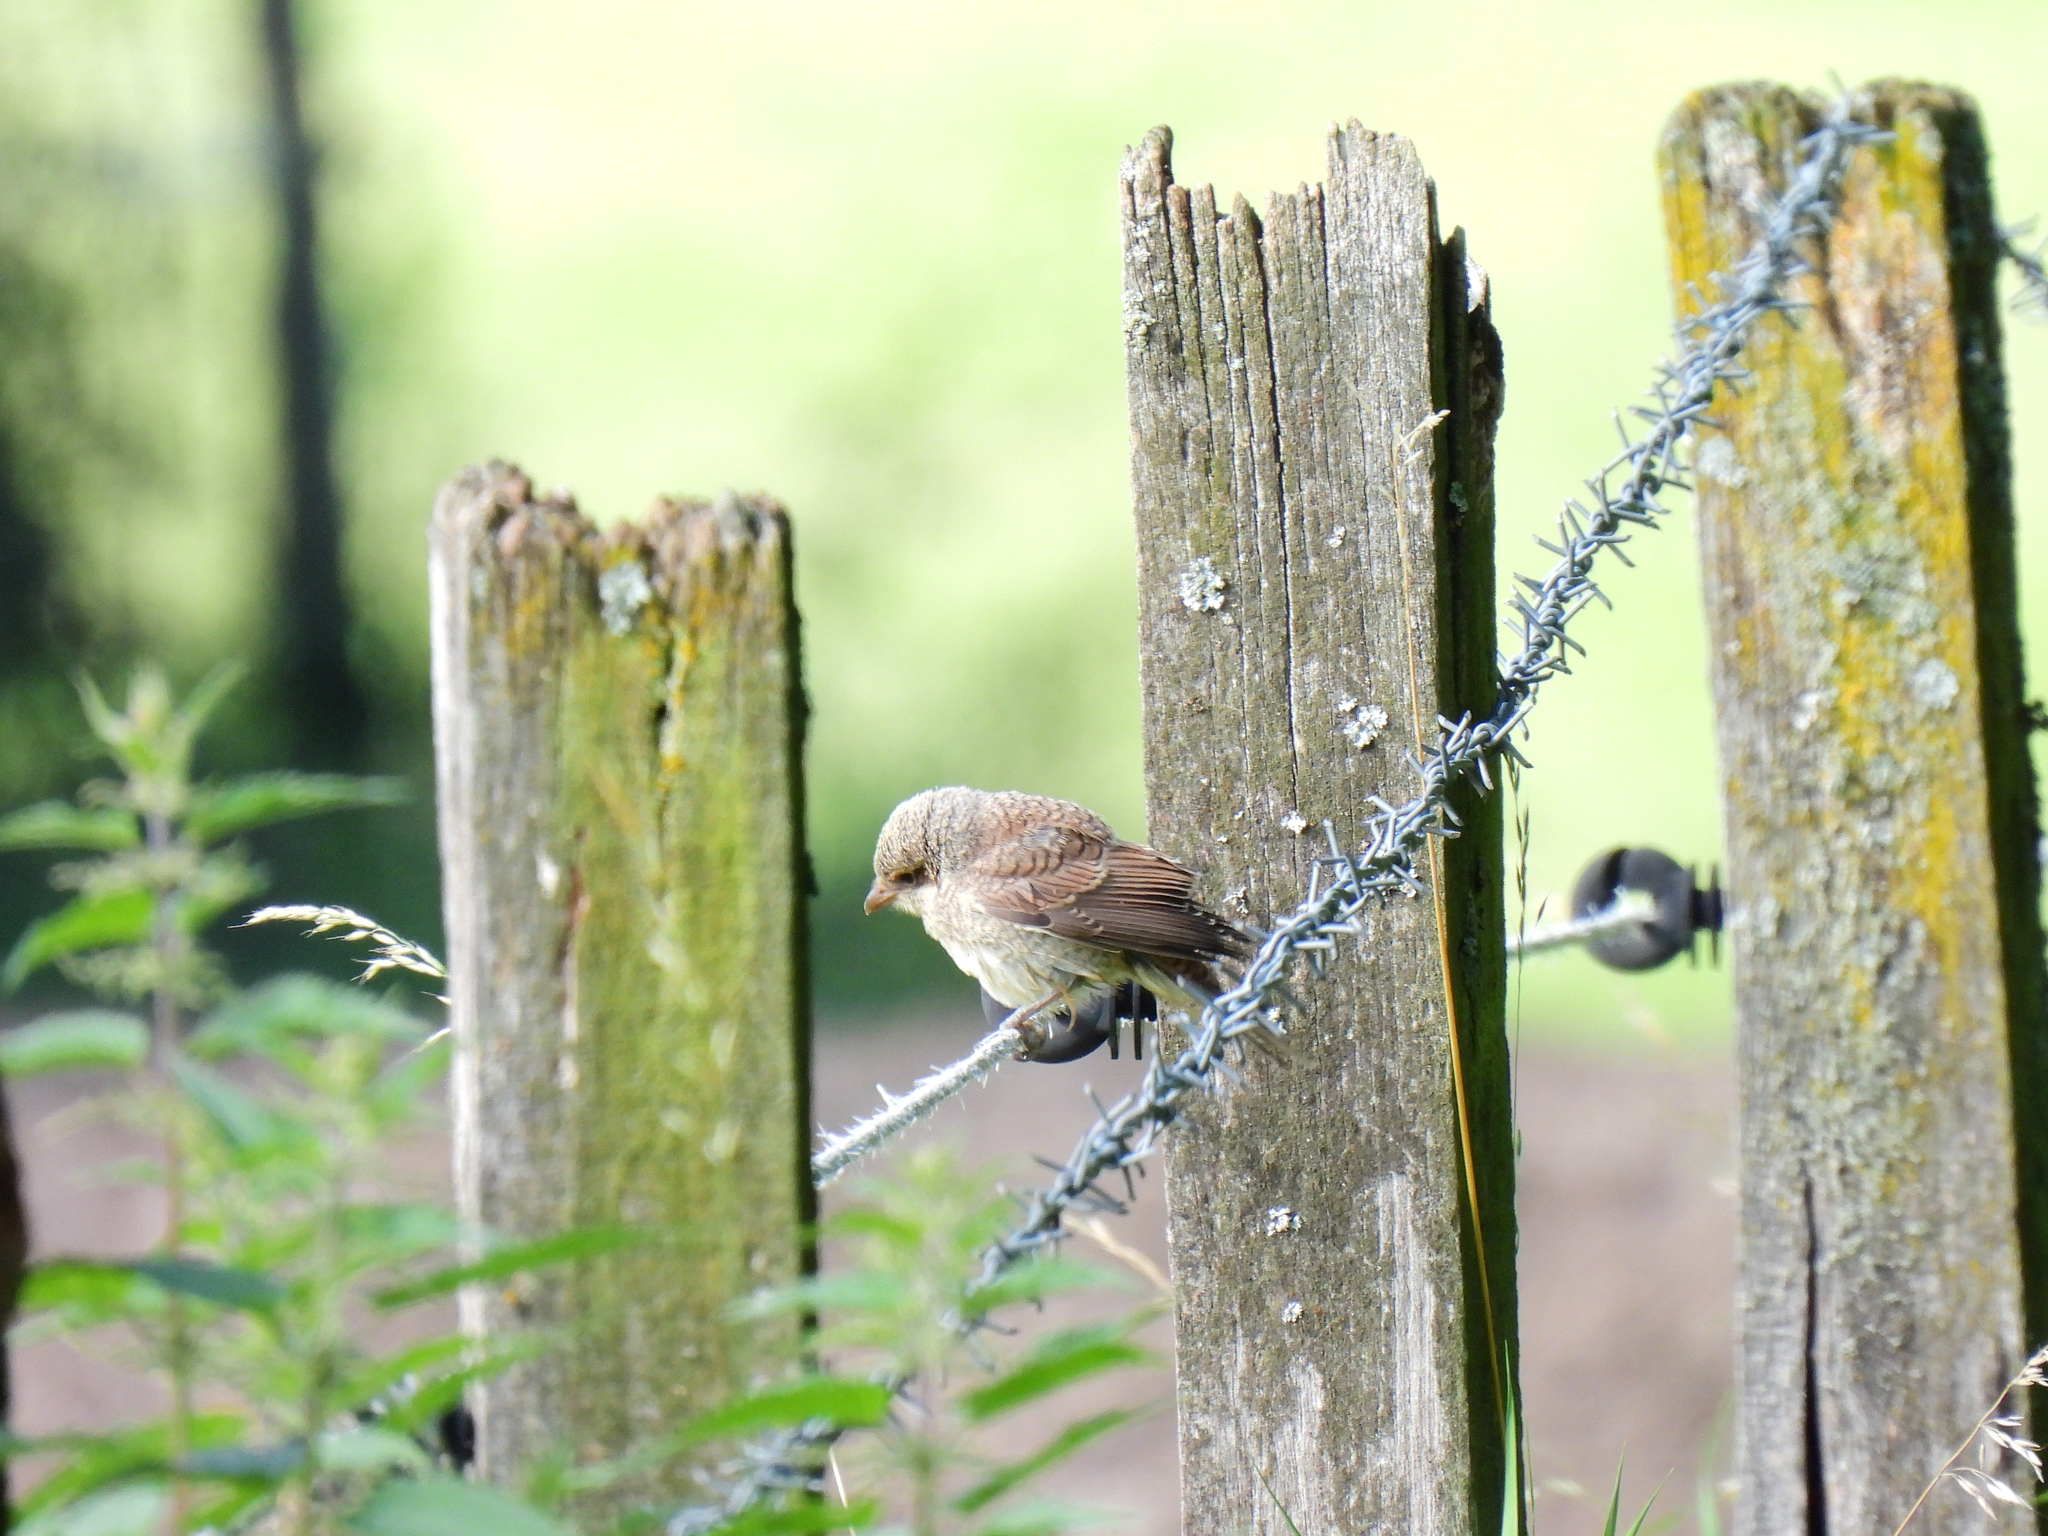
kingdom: Animalia
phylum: Chordata
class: Aves
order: Passeriformes
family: Laniidae
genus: Lanius
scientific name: Lanius collurio
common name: Red-backed shrike
